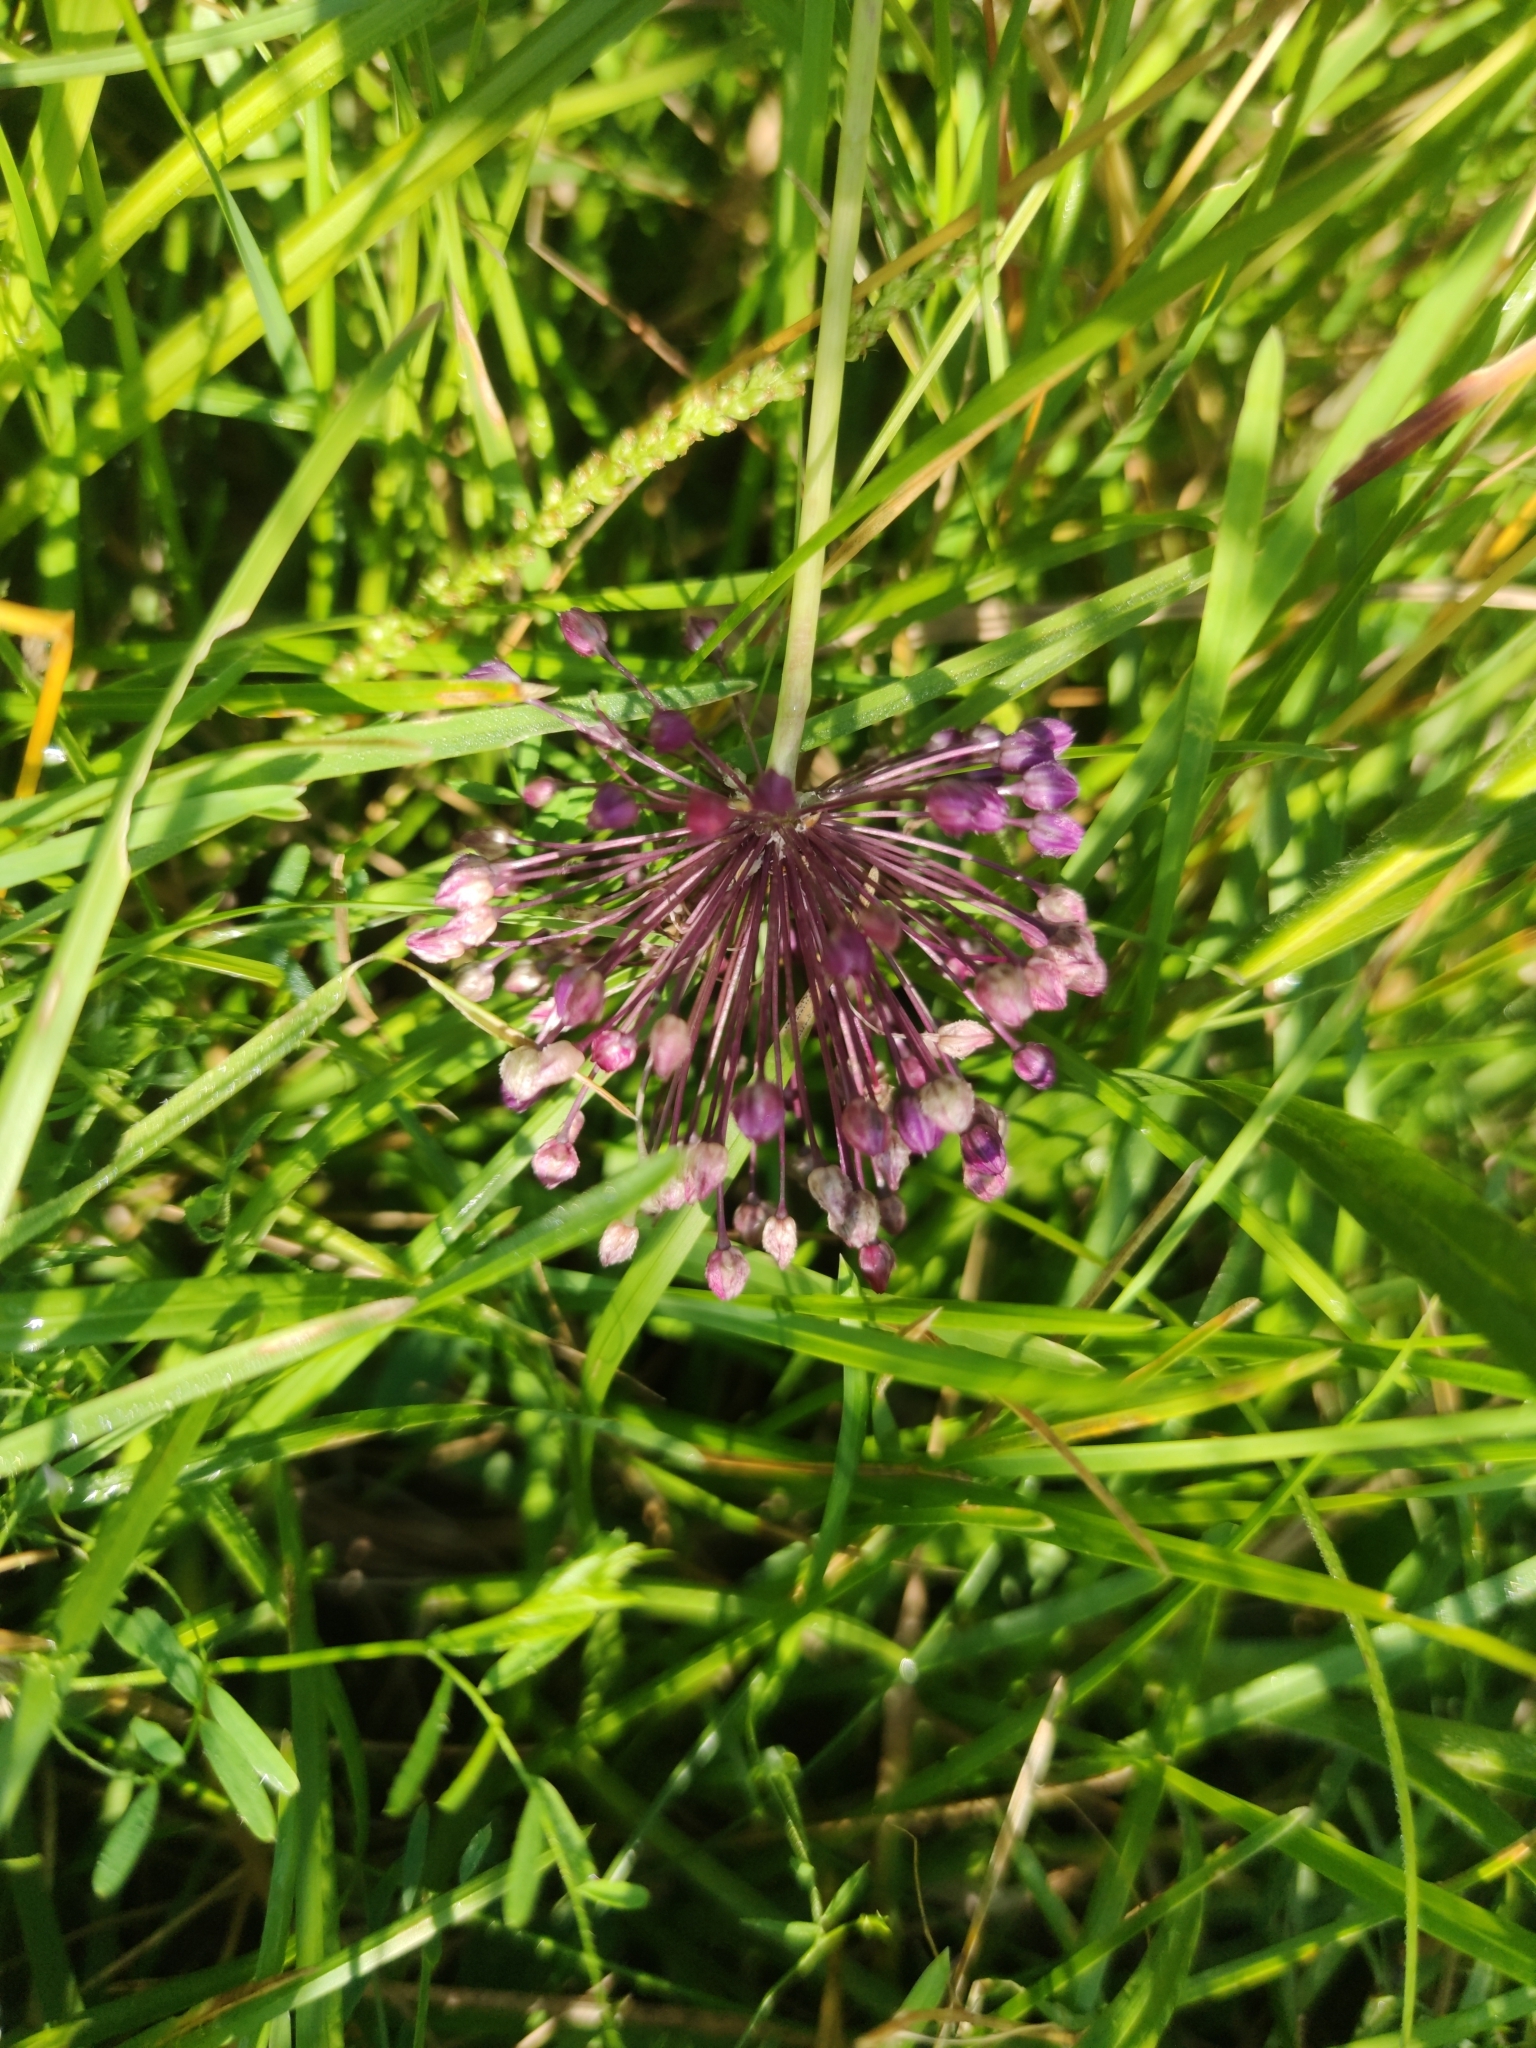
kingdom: Plantae
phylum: Tracheophyta
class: Liliopsida
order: Asparagales
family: Amaryllidaceae
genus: Allium
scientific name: Allium rotundum
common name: Sand leek
